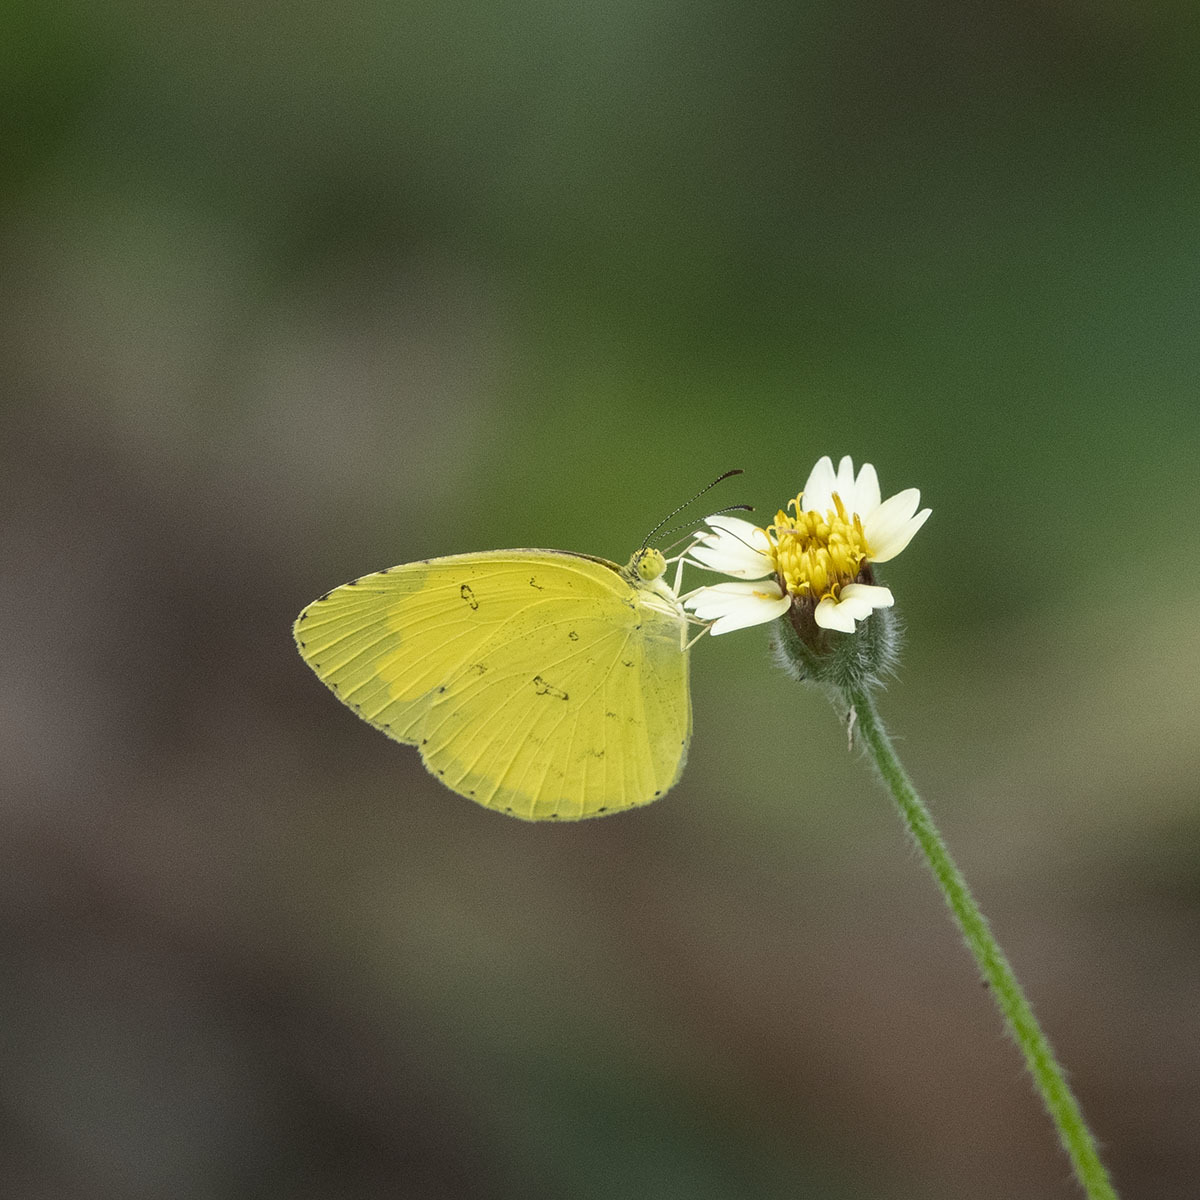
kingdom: Animalia
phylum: Arthropoda
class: Insecta
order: Lepidoptera
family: Pieridae
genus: Eurema
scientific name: Eurema hecabe
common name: Pale grass yellow
